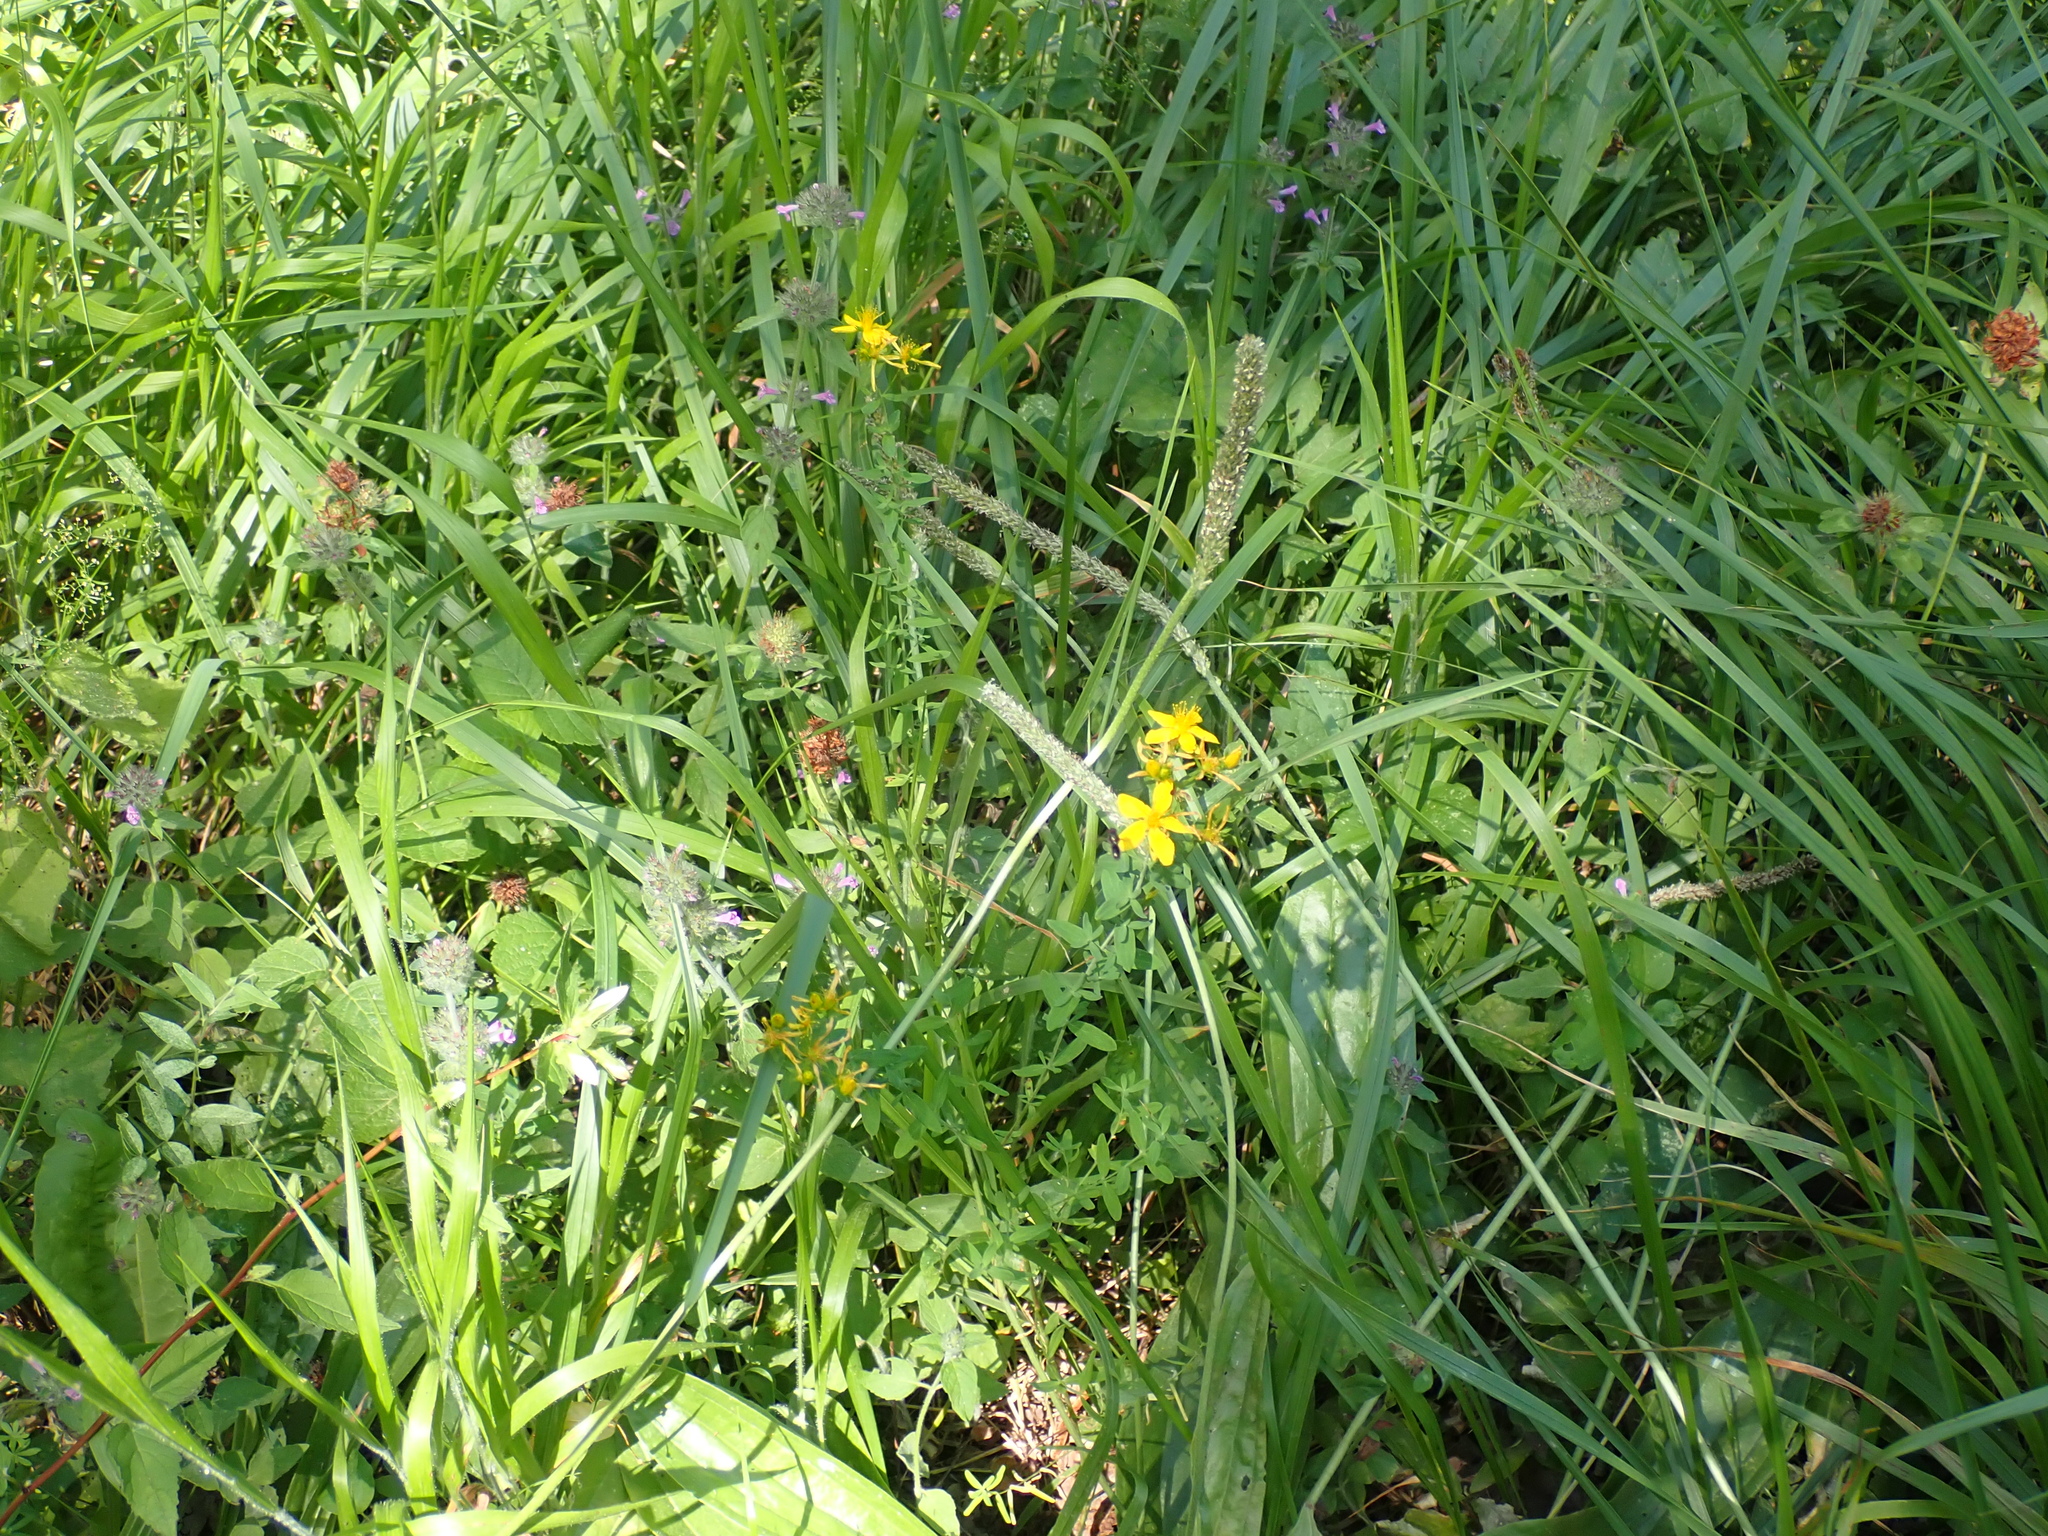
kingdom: Plantae
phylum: Tracheophyta
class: Magnoliopsida
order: Malpighiales
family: Hypericaceae
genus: Hypericum
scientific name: Hypericum perforatum
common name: Common st. johnswort
